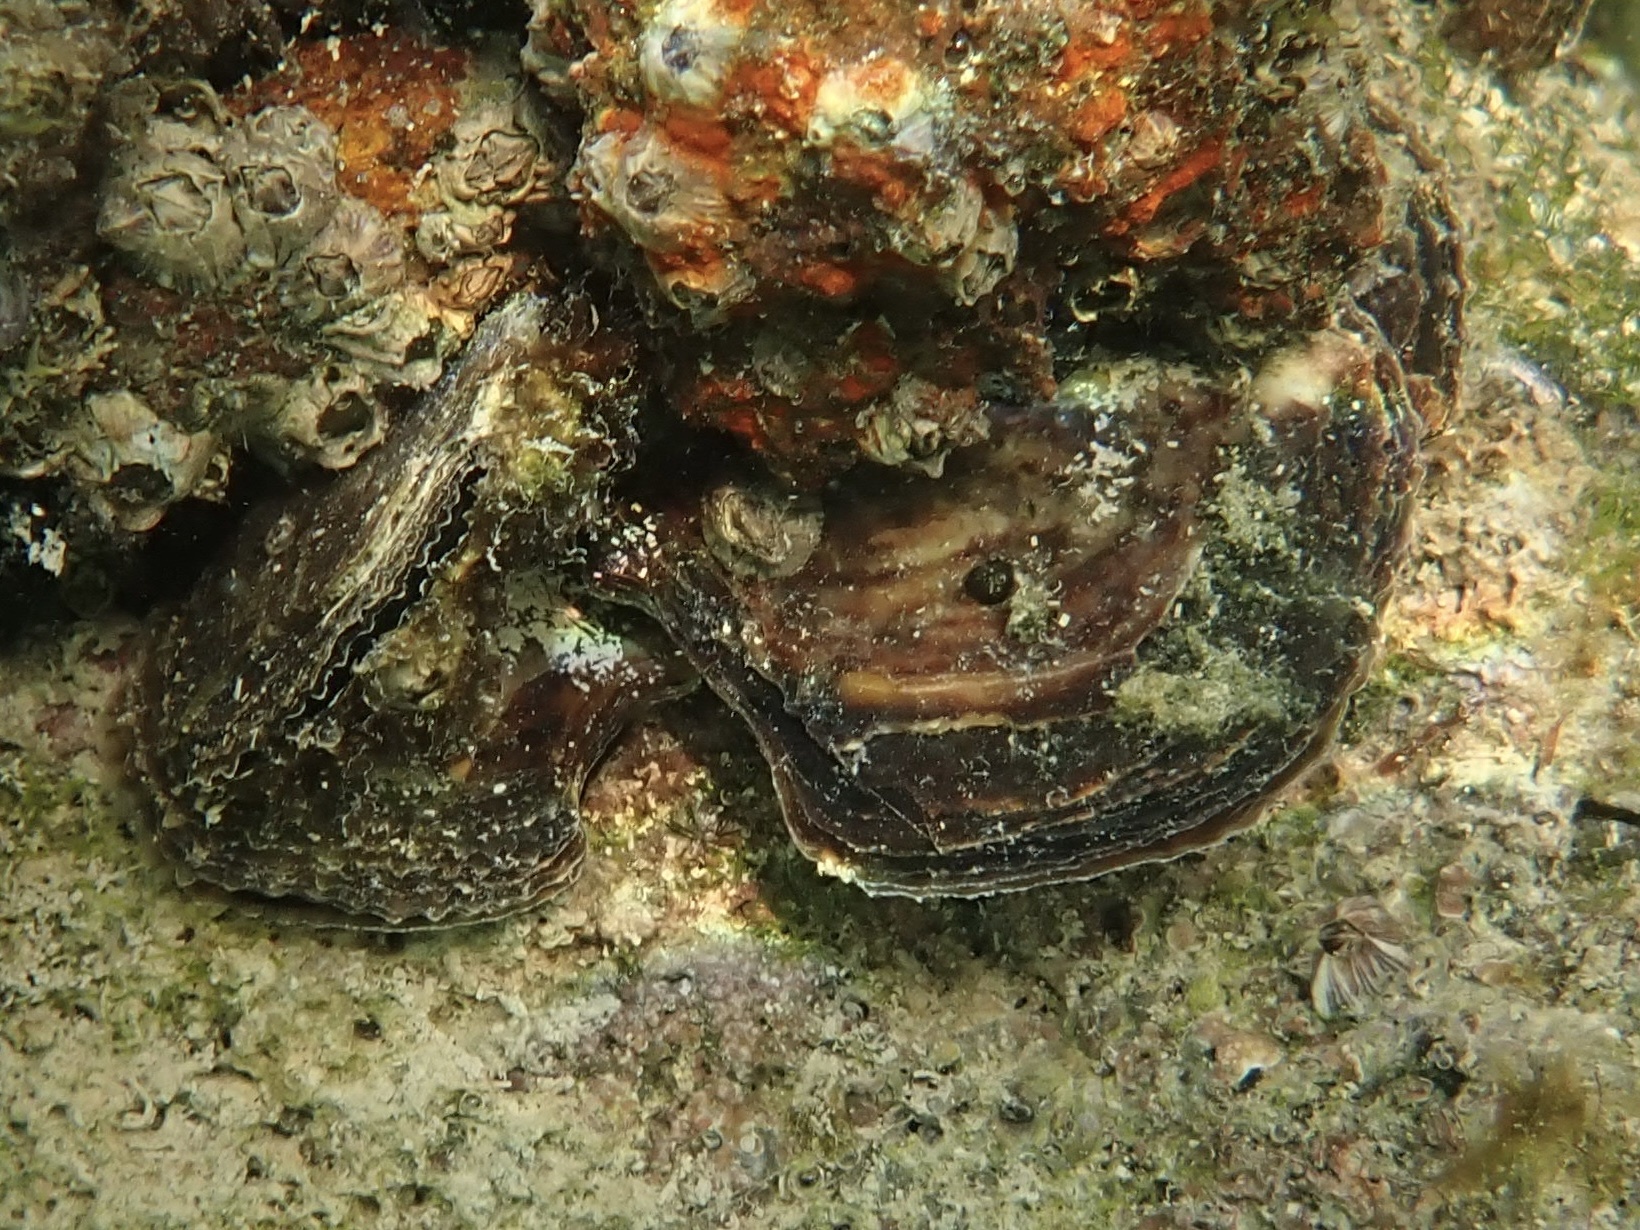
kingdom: Animalia
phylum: Mollusca
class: Bivalvia
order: Ostreida
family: Isognomonidae
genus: Isognomon
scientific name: Isognomon alatus
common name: Flat tree-oyster
